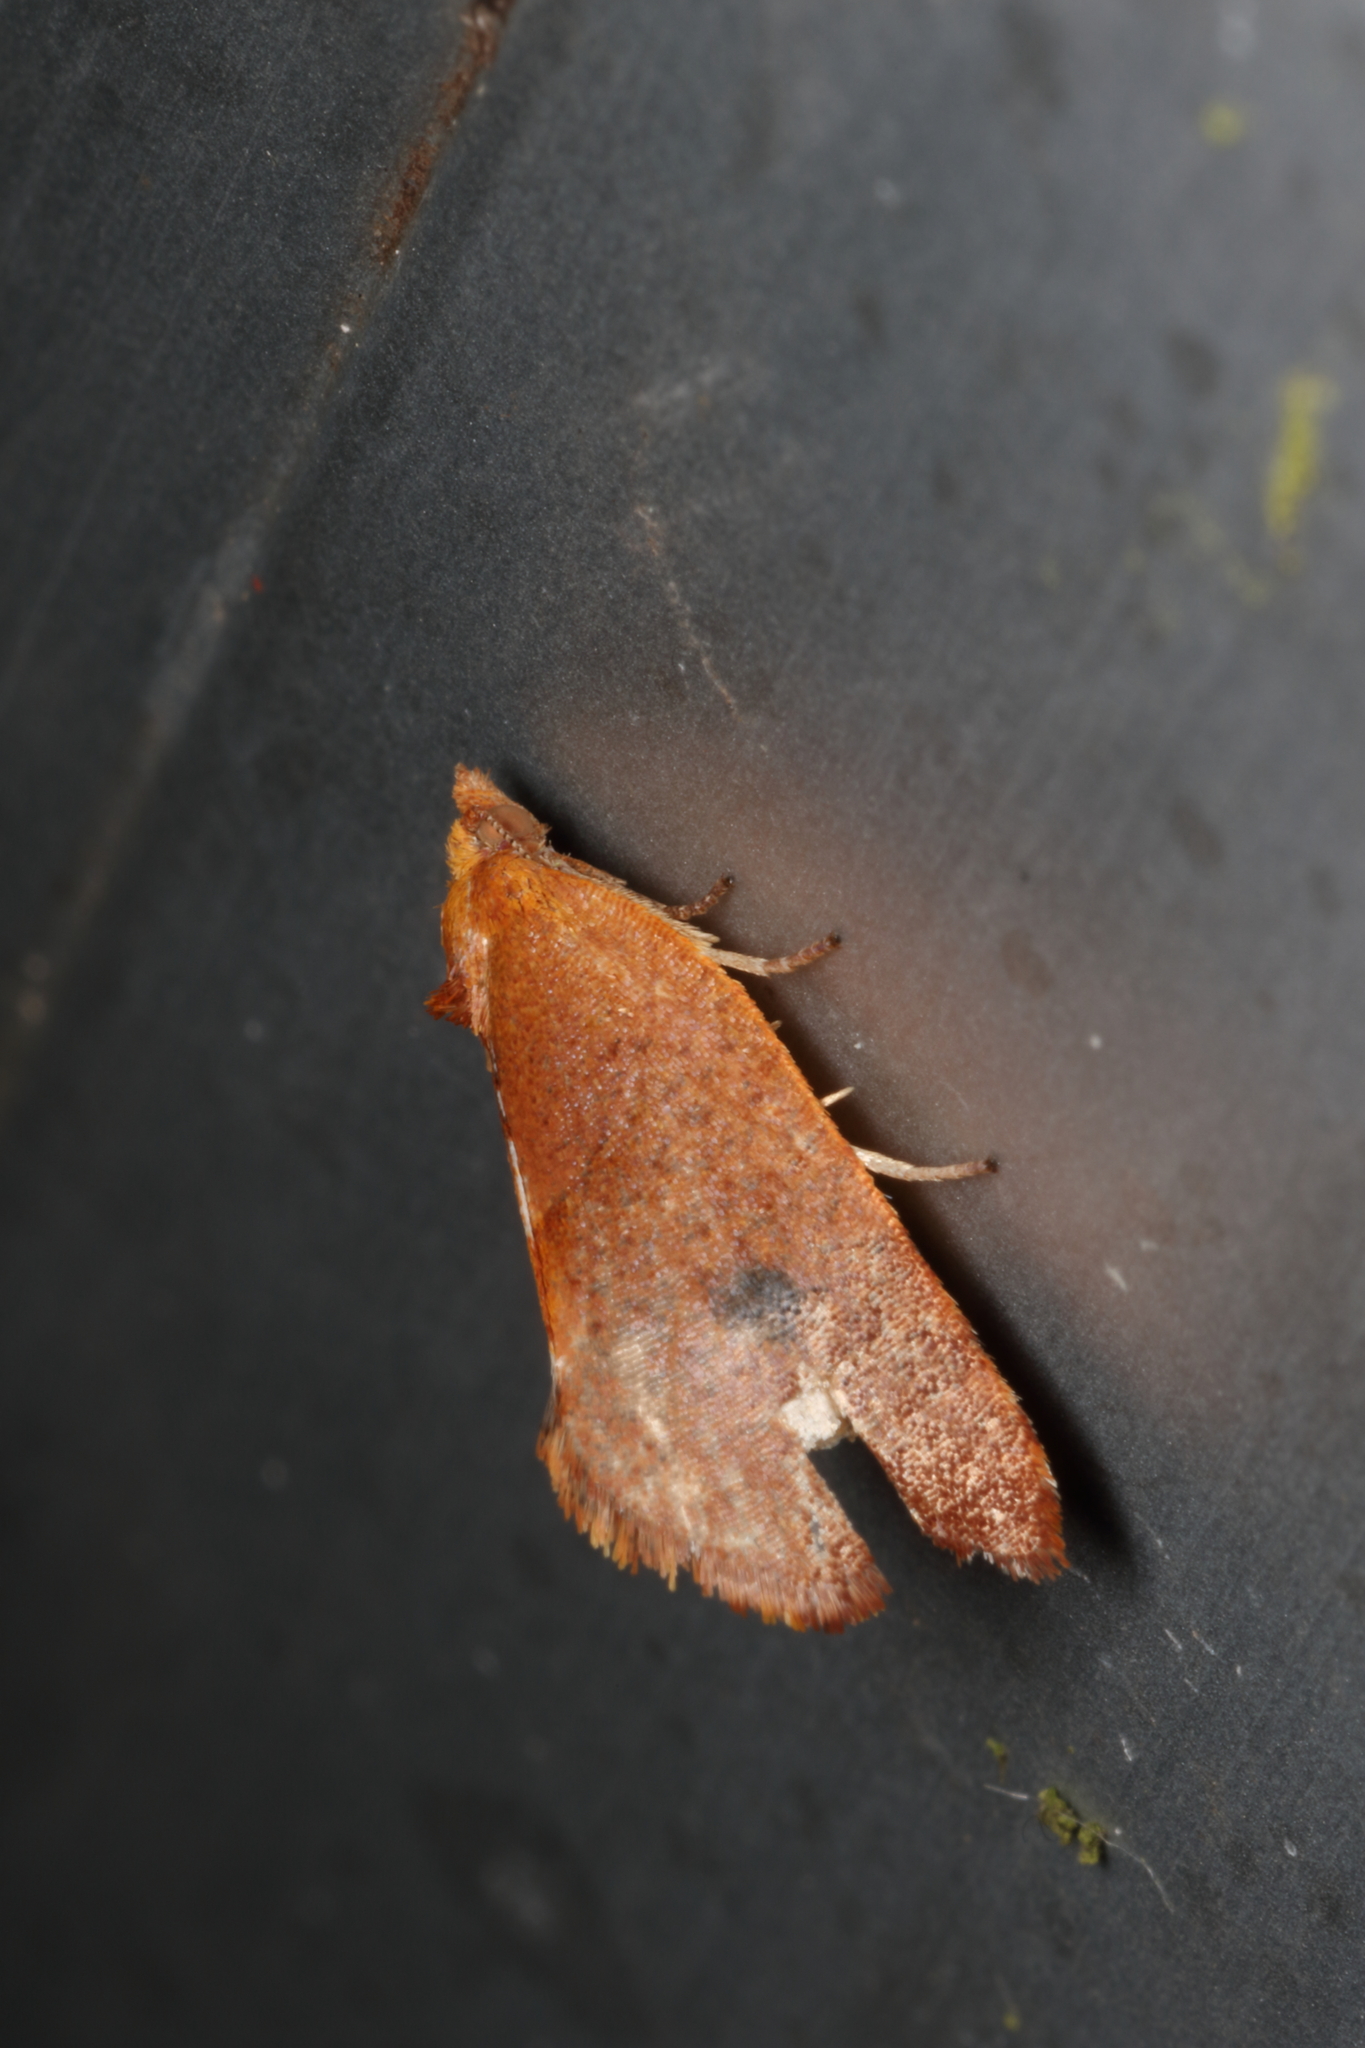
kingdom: Animalia
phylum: Arthropoda
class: Insecta
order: Lepidoptera
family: Tortricidae
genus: Pyrgotis
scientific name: Pyrgotis pyramidias
